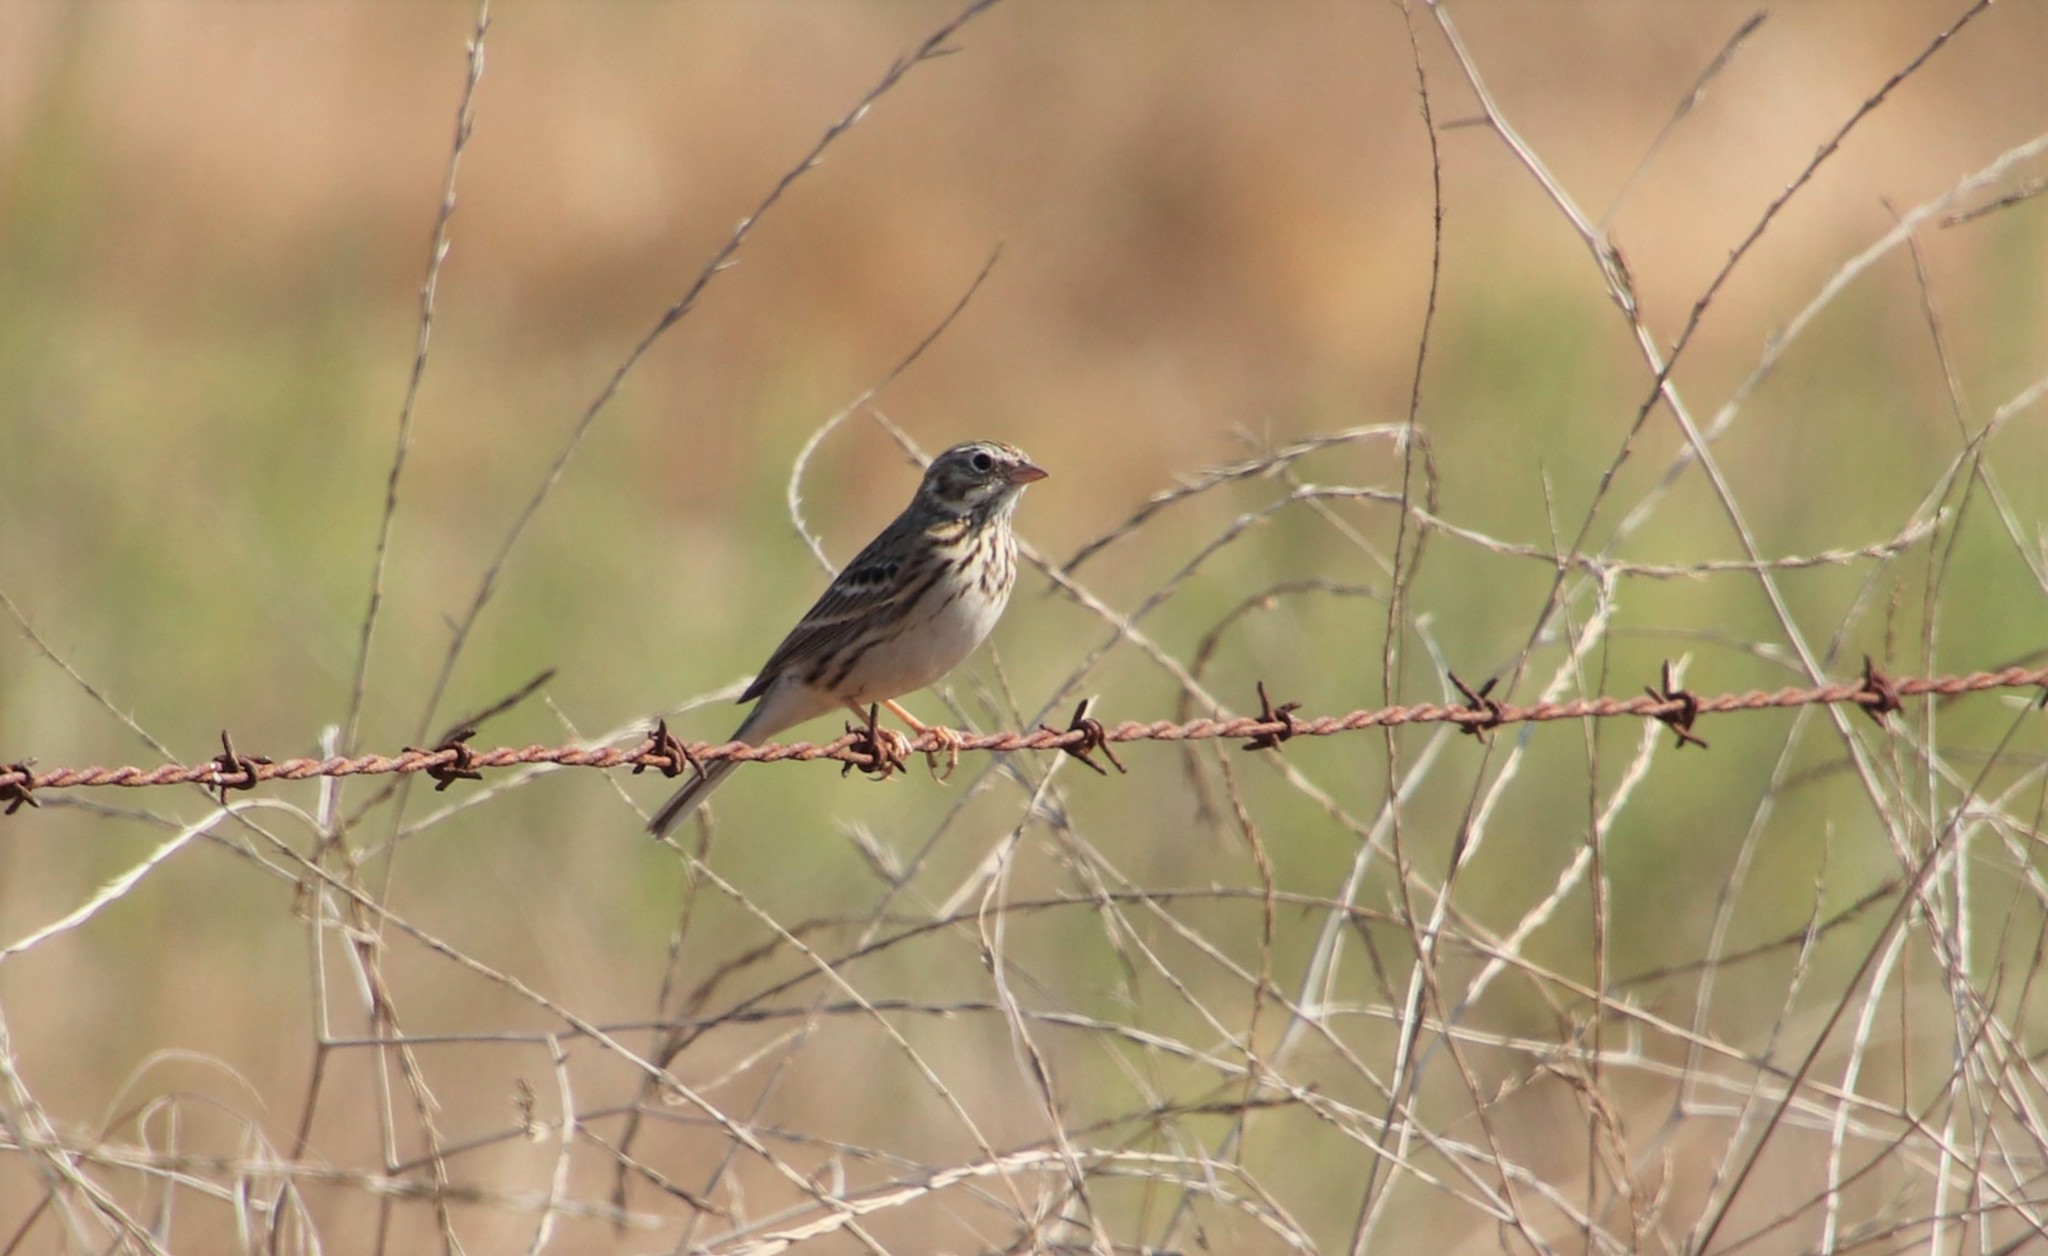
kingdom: Animalia
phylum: Chordata
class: Aves
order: Passeriformes
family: Passerellidae
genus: Pooecetes
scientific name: Pooecetes gramineus
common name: Vesper sparrow
